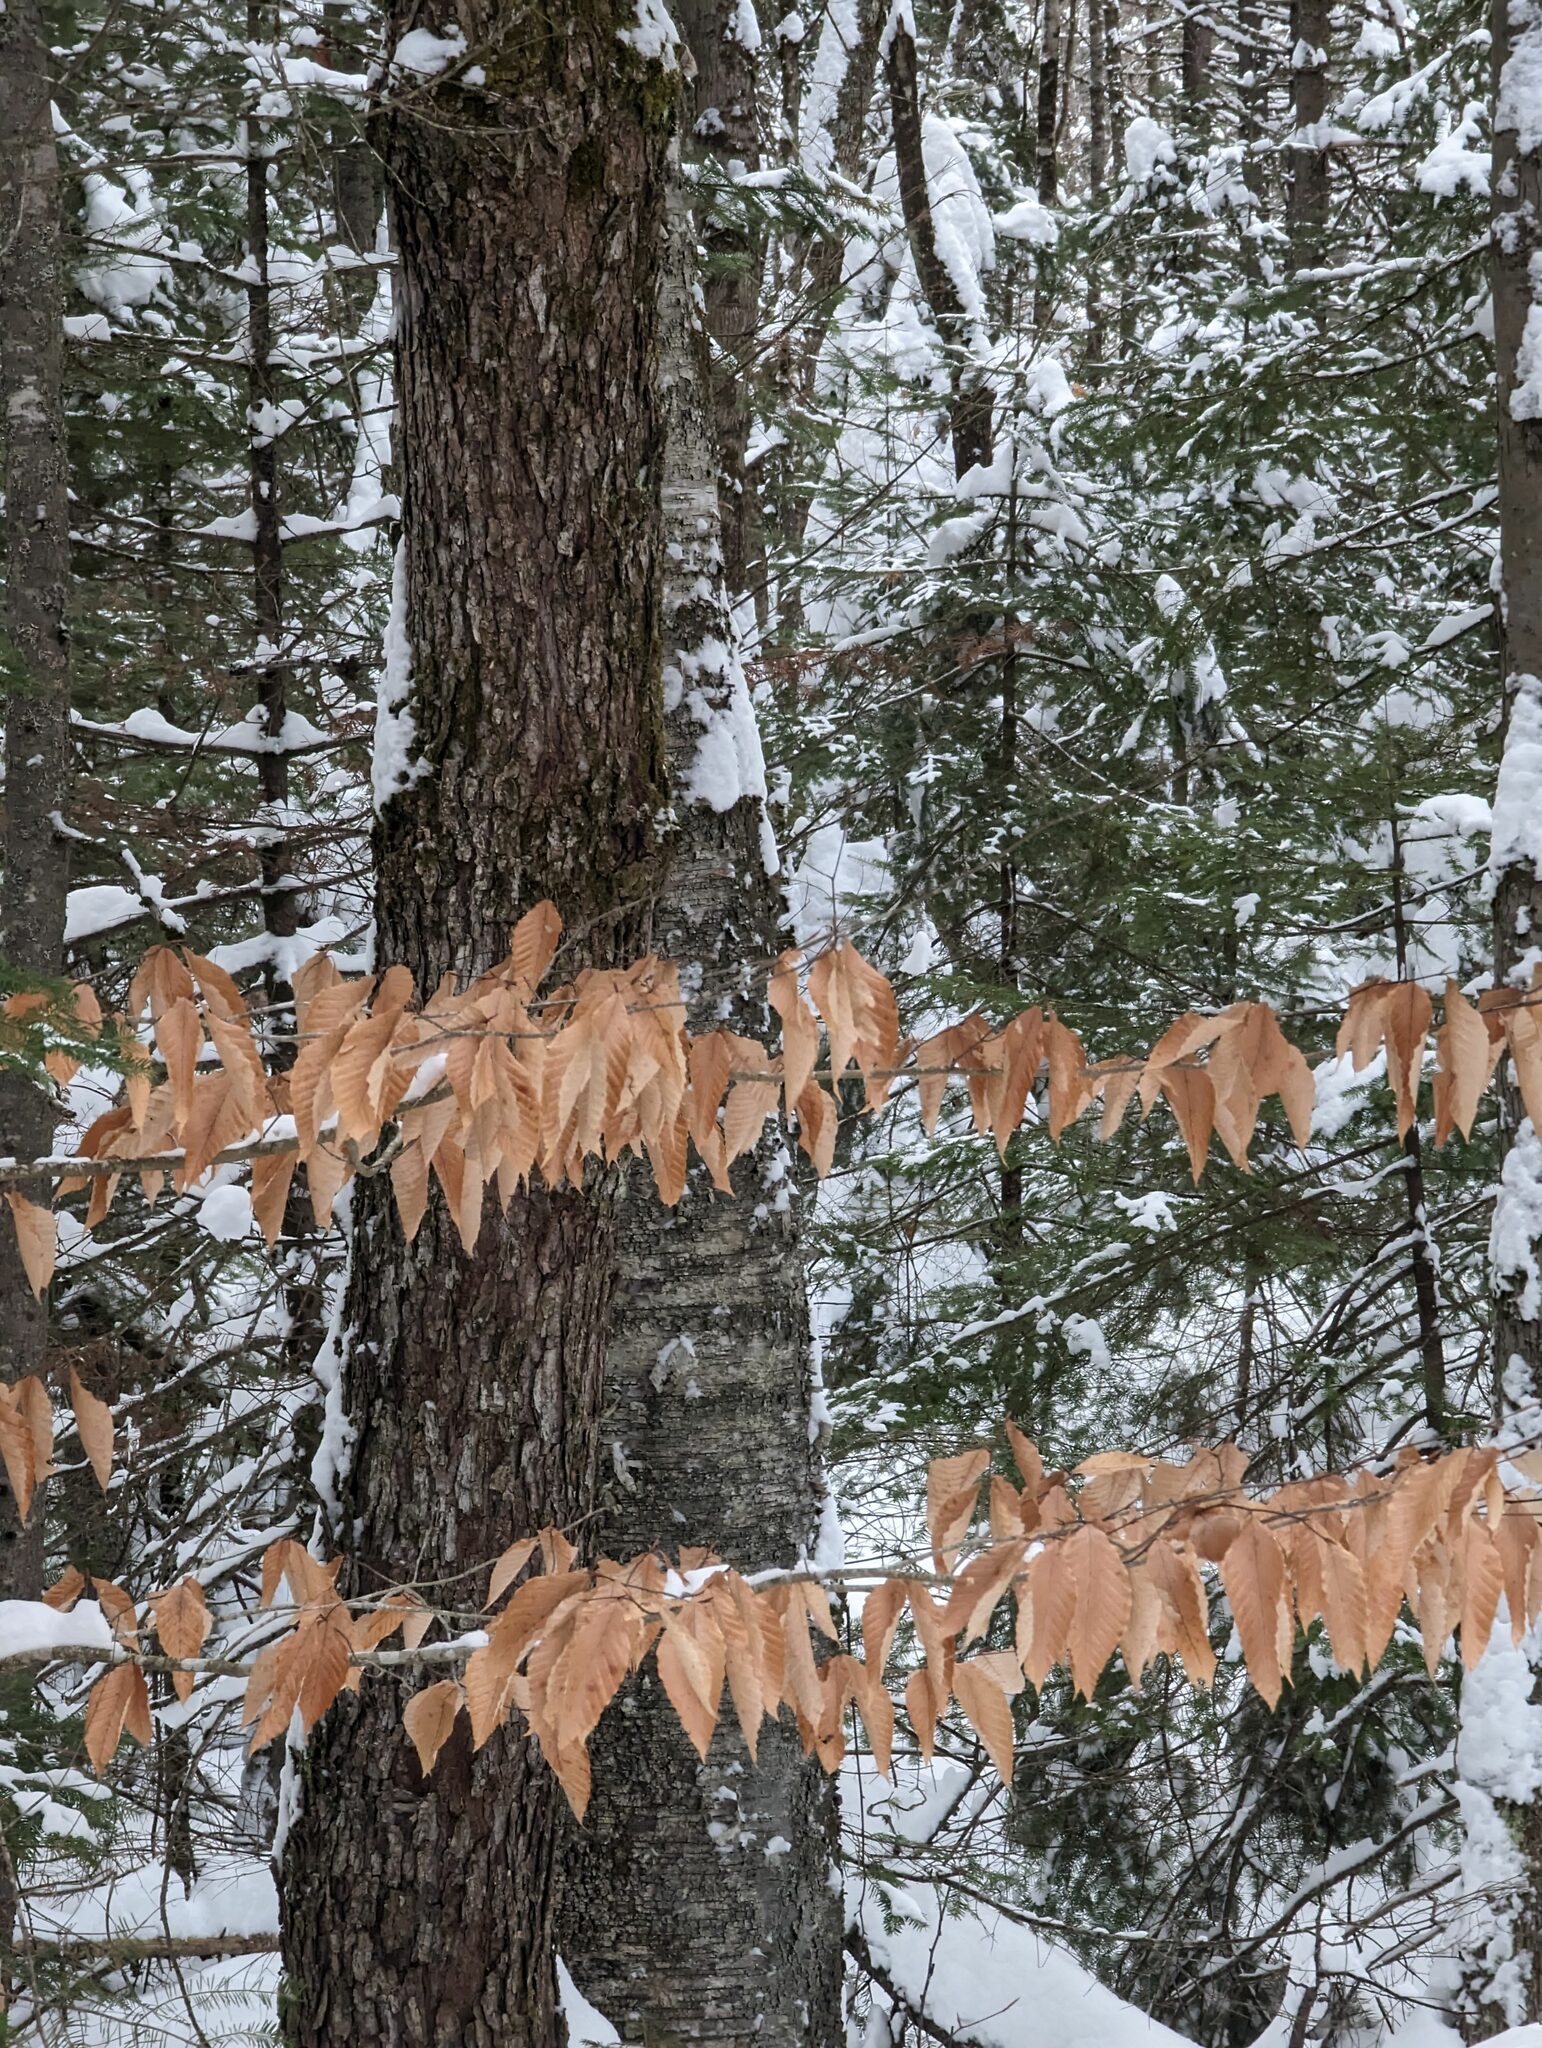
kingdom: Plantae
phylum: Tracheophyta
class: Magnoliopsida
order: Fagales
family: Fagaceae
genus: Fagus
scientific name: Fagus grandifolia
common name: American beech
